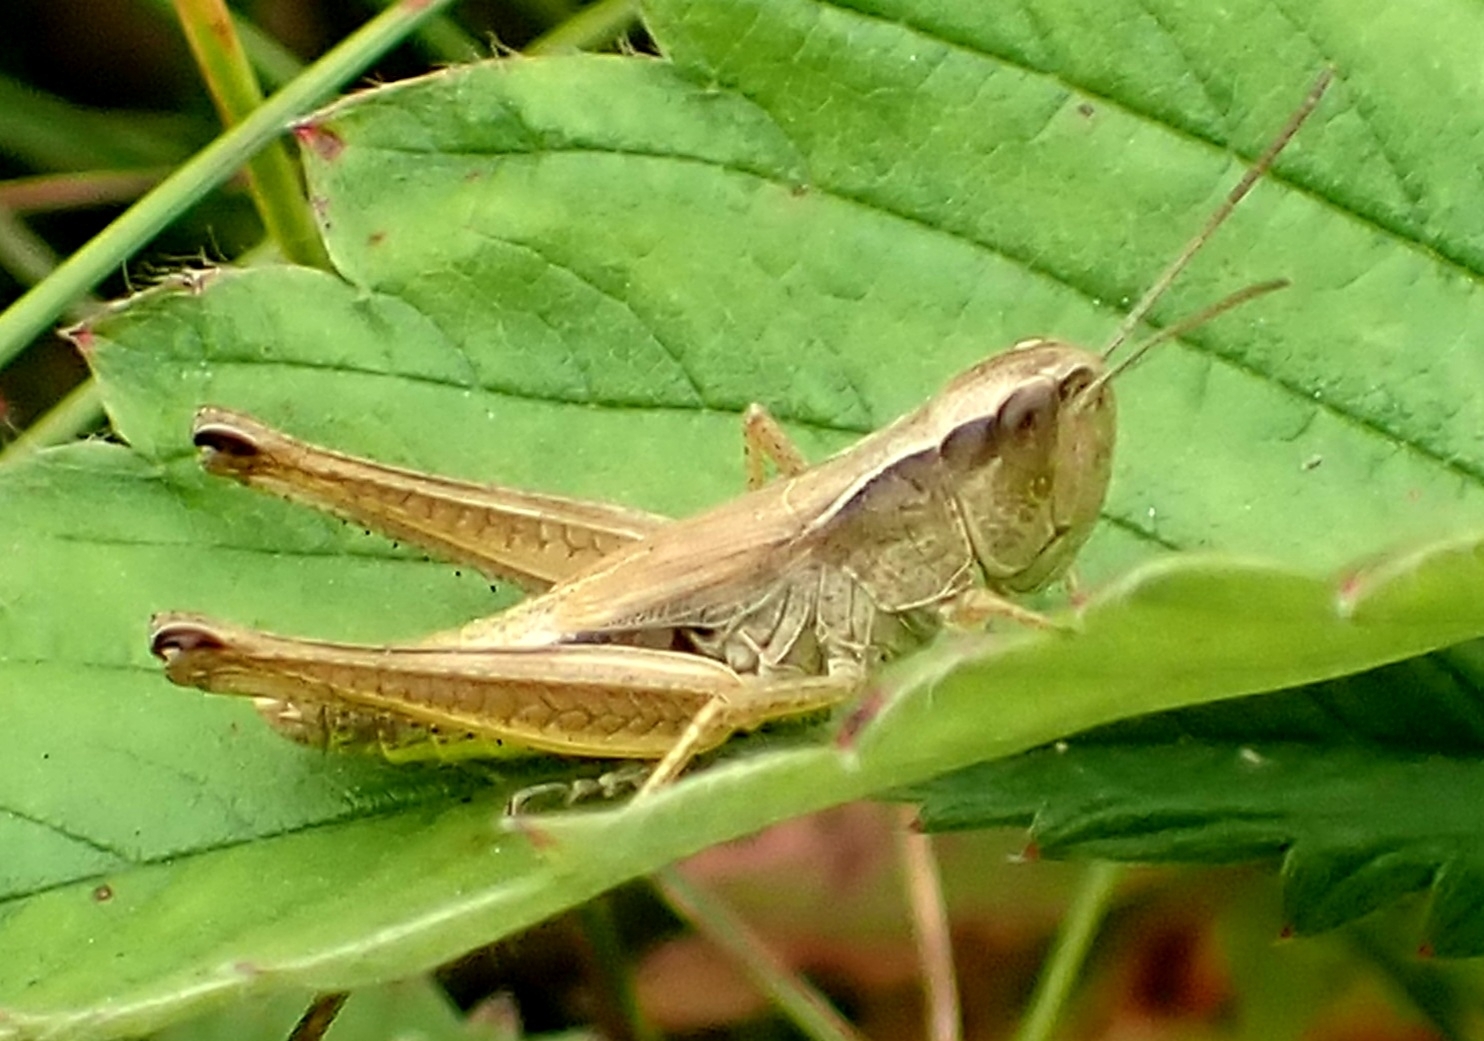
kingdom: Animalia
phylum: Arthropoda
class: Insecta
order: Orthoptera
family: Acrididae
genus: Pseudochorthippus
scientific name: Pseudochorthippus parallelus
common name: Meadow grasshopper
